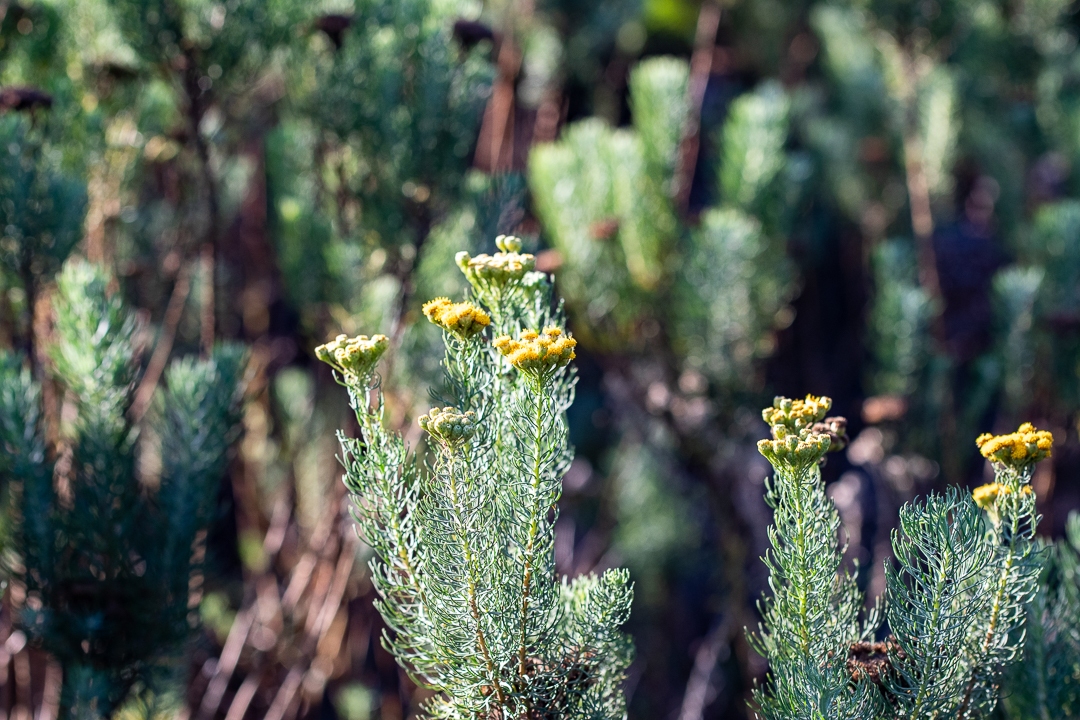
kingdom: Plantae
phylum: Tracheophyta
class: Magnoliopsida
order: Asterales
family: Asteraceae
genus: Athanasia
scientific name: Athanasia crithmifolia
